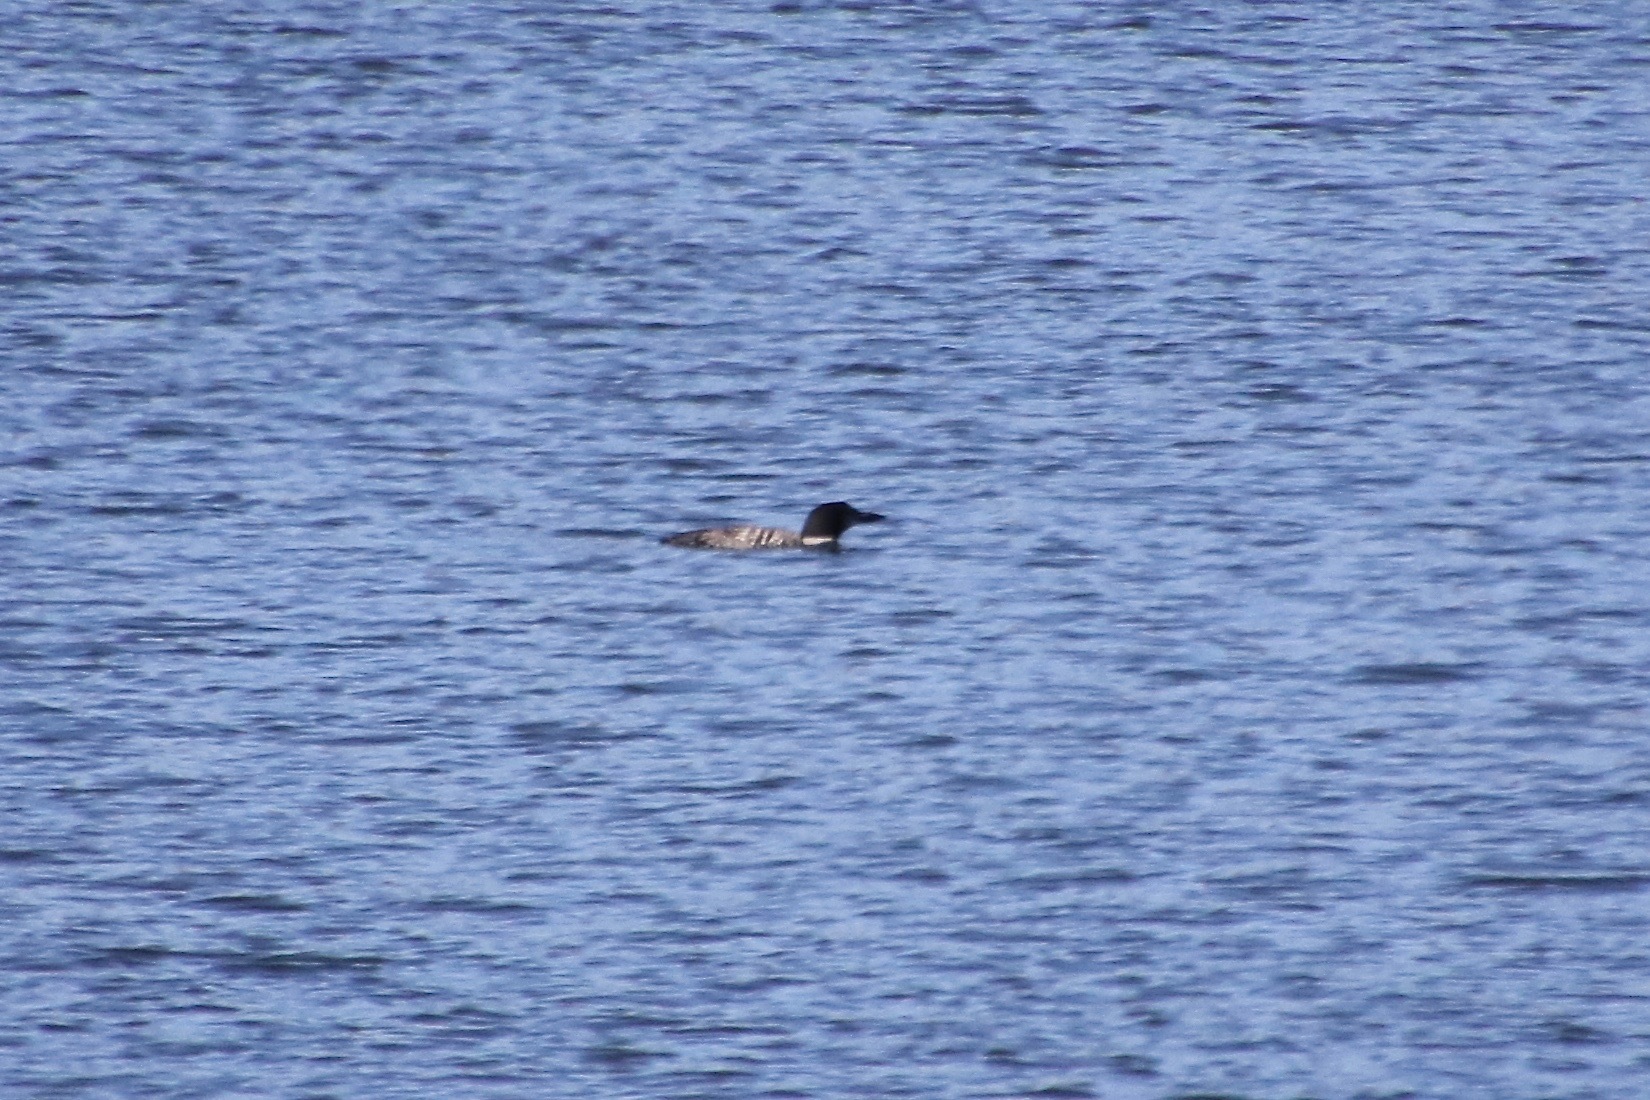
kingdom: Animalia
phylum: Chordata
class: Aves
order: Gaviiformes
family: Gaviidae
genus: Gavia
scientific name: Gavia immer
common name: Common loon
